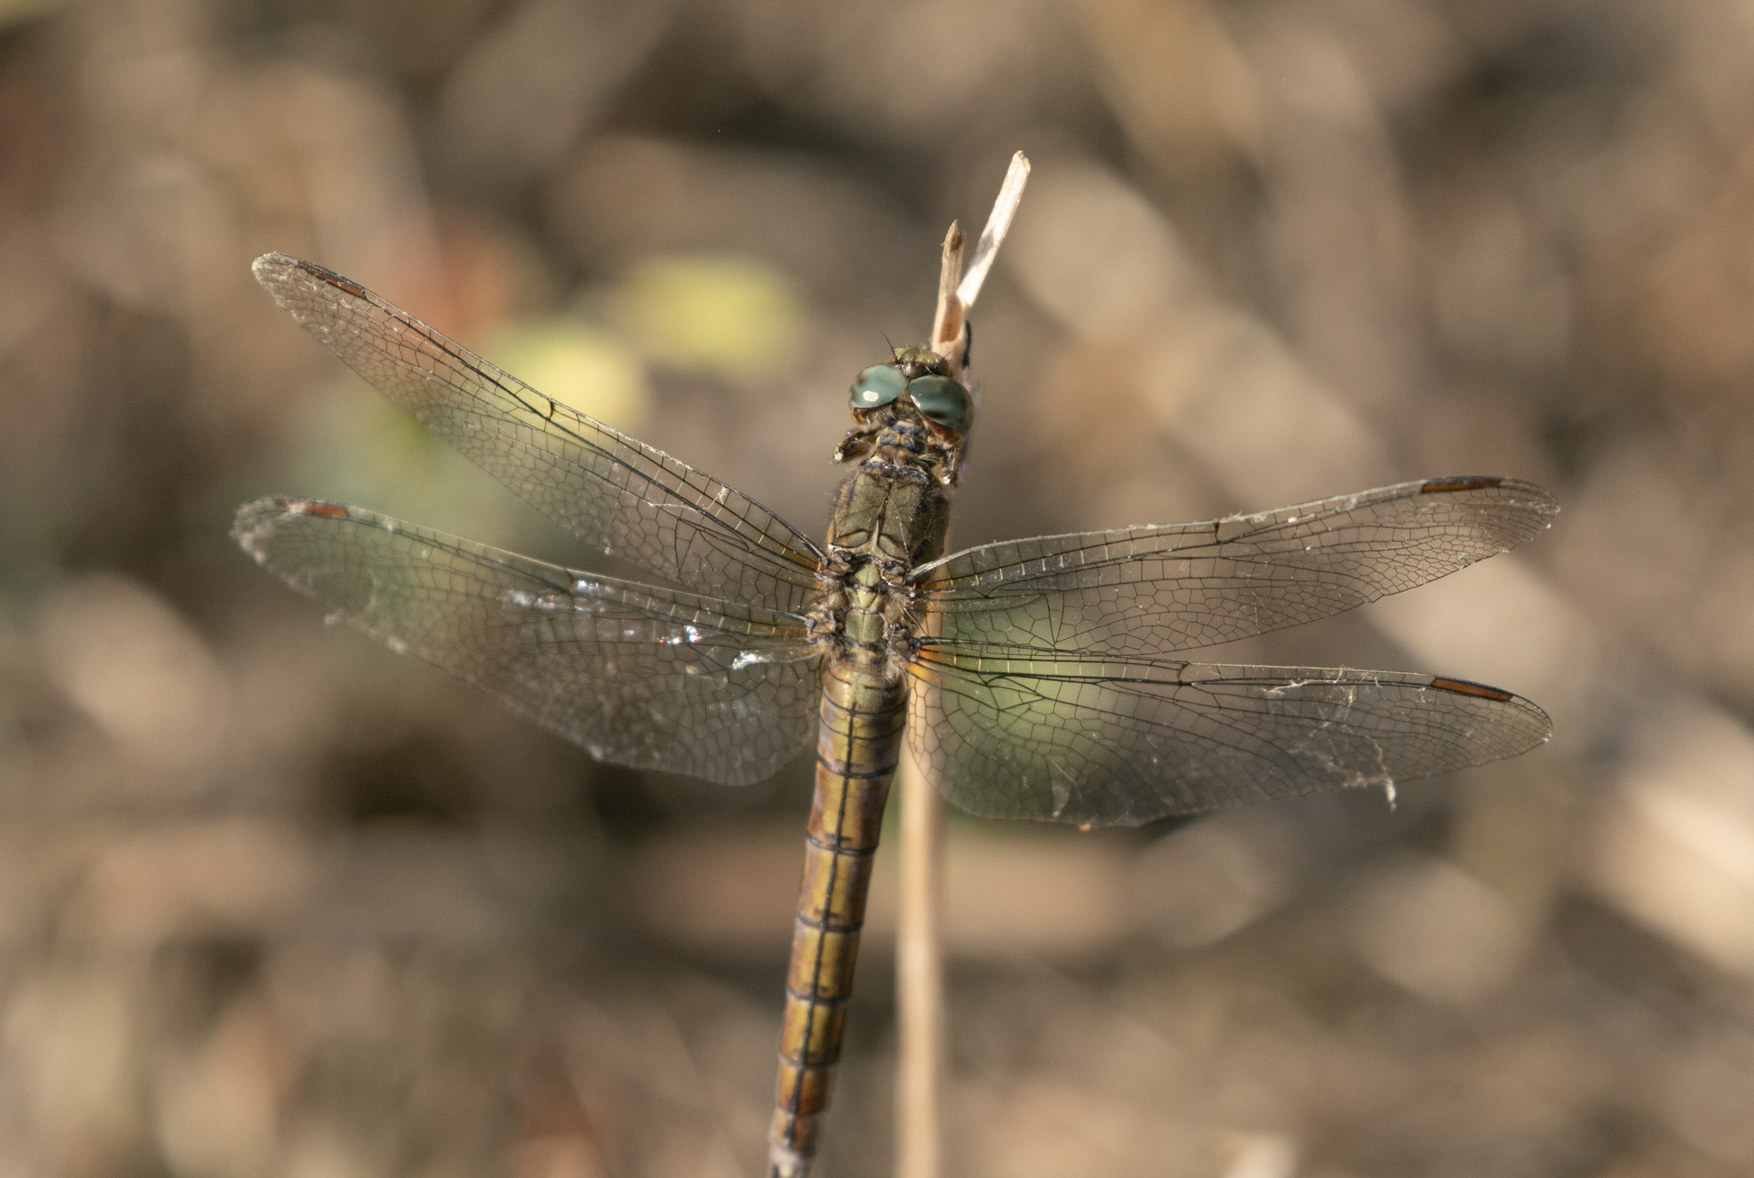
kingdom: Animalia
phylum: Arthropoda
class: Insecta
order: Odonata
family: Libellulidae
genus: Orthetrum
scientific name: Orthetrum coerulescens
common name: Keeled skimmer
